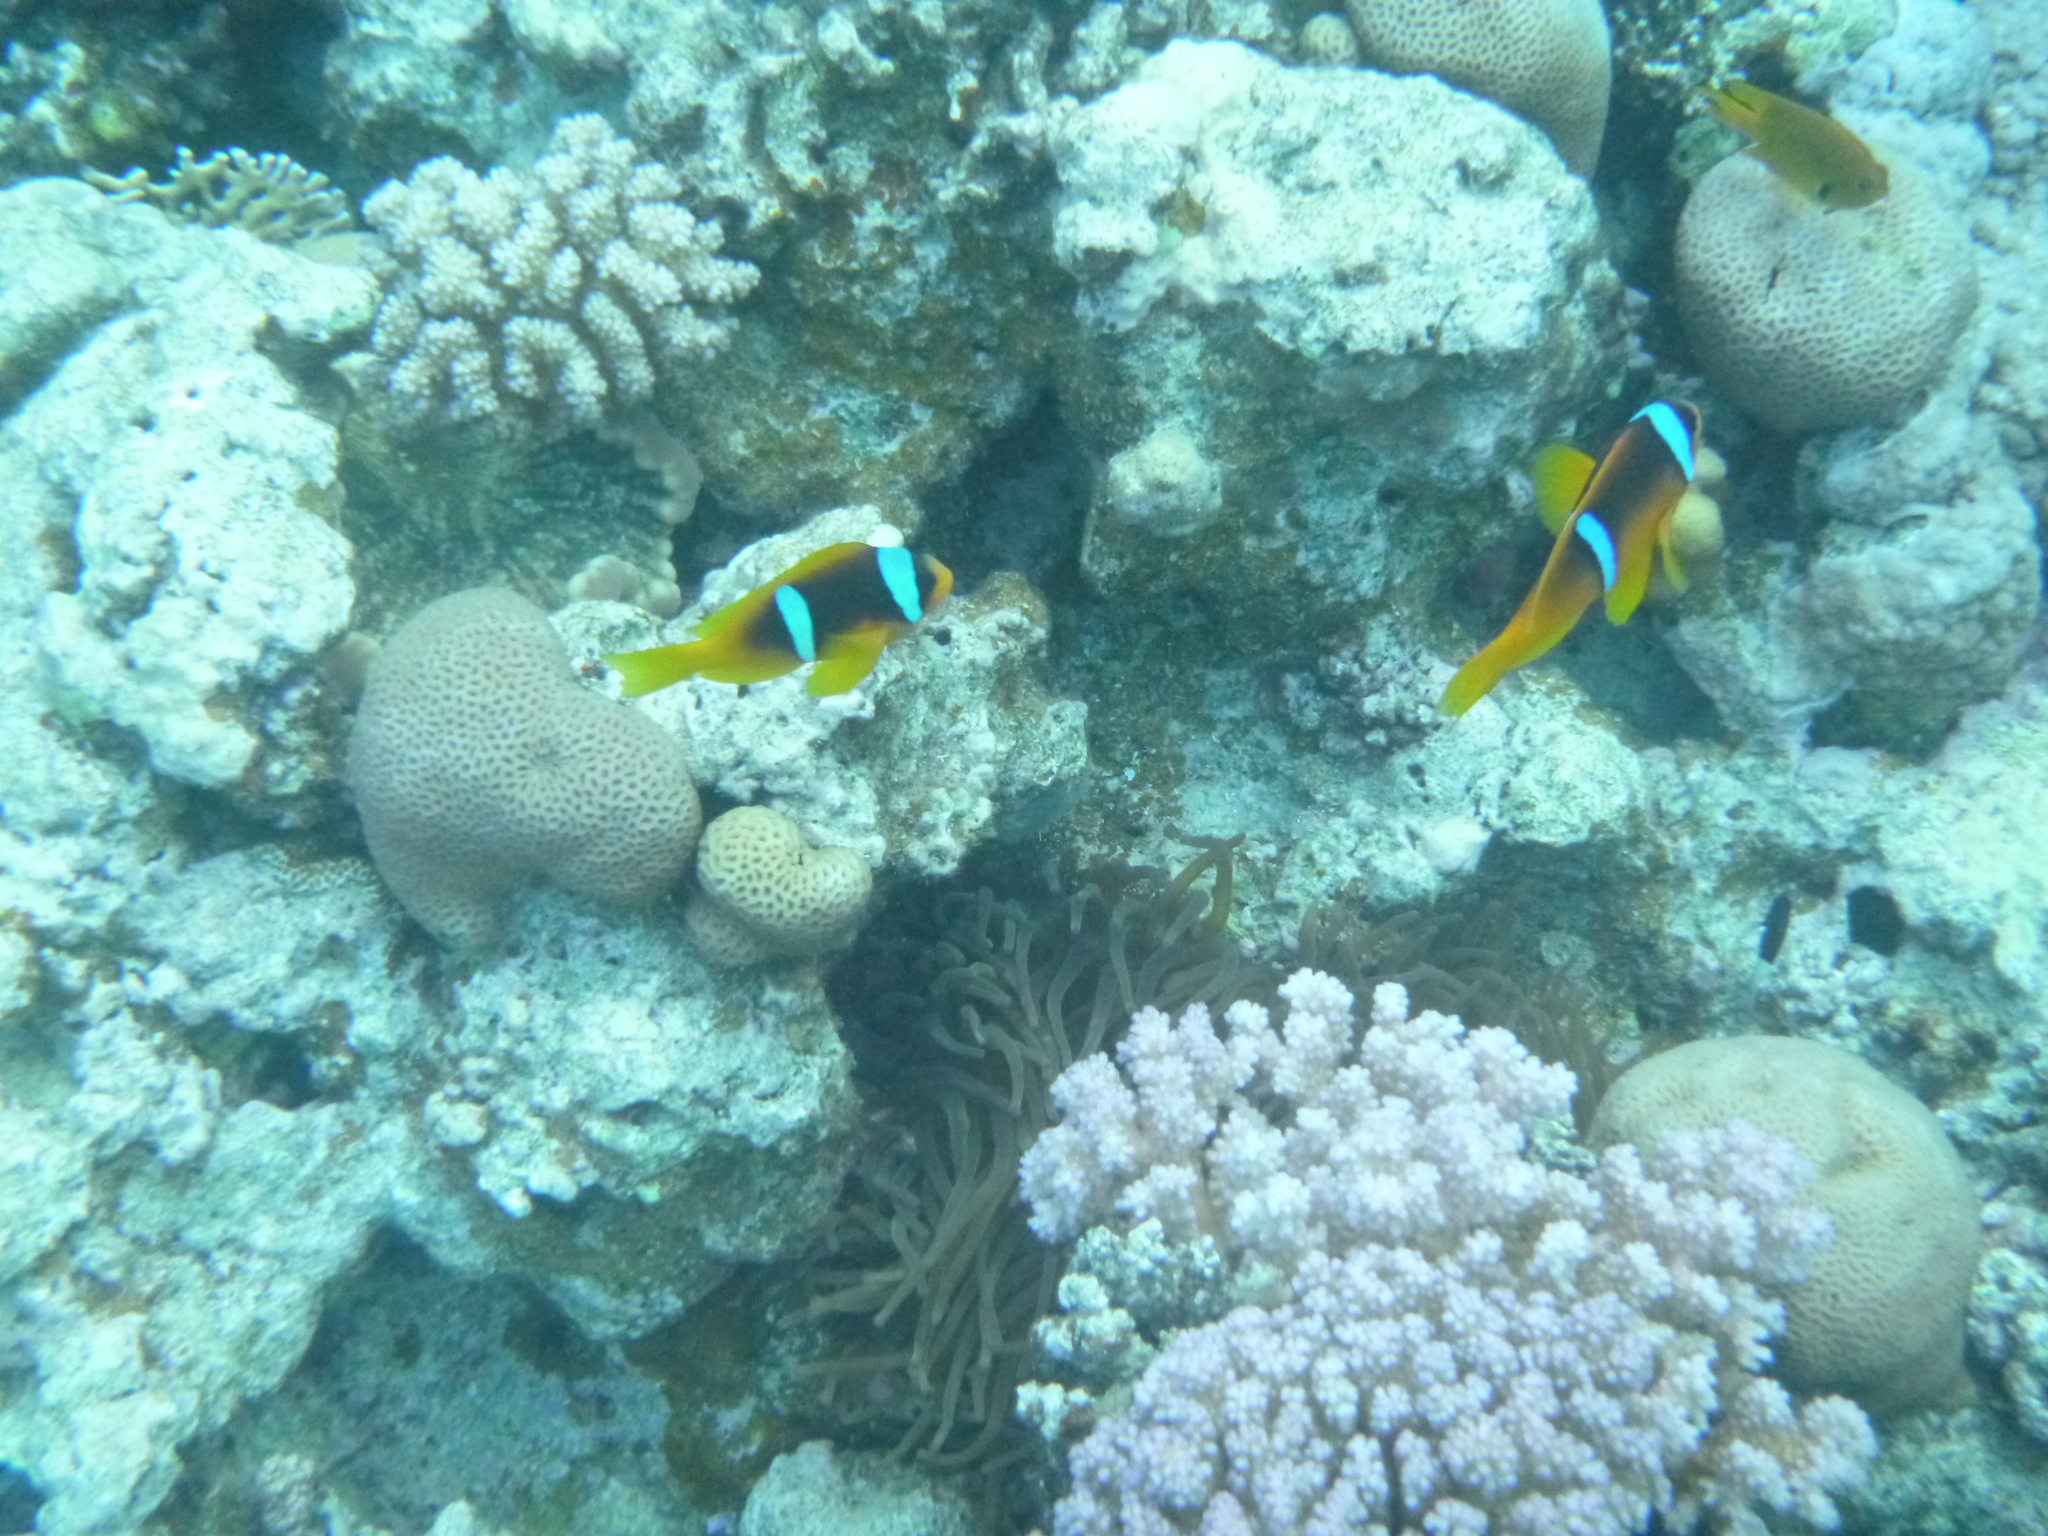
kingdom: Animalia
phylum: Chordata
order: Perciformes
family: Pomacentridae
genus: Amphiprion
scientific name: Amphiprion bicinctus
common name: Two-banded anemonefish
